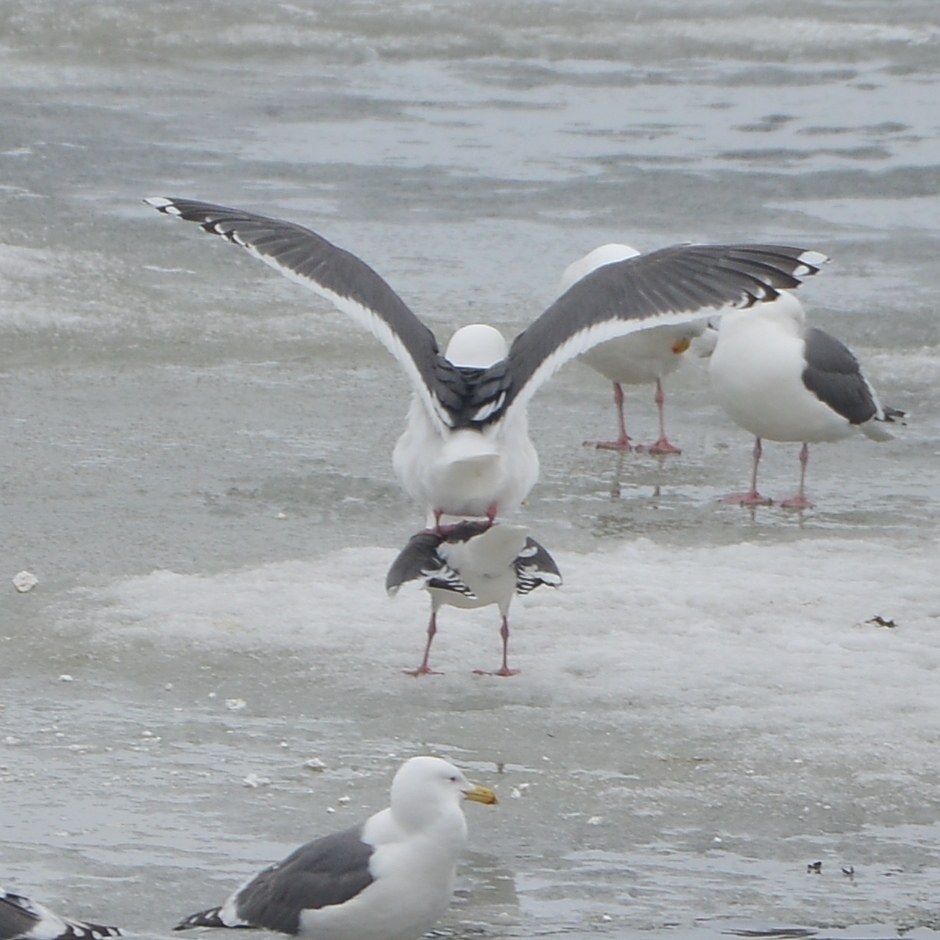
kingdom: Animalia
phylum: Chordata
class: Aves
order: Charadriiformes
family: Laridae
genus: Larus
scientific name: Larus schistisagus
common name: Slaty-backed gull
